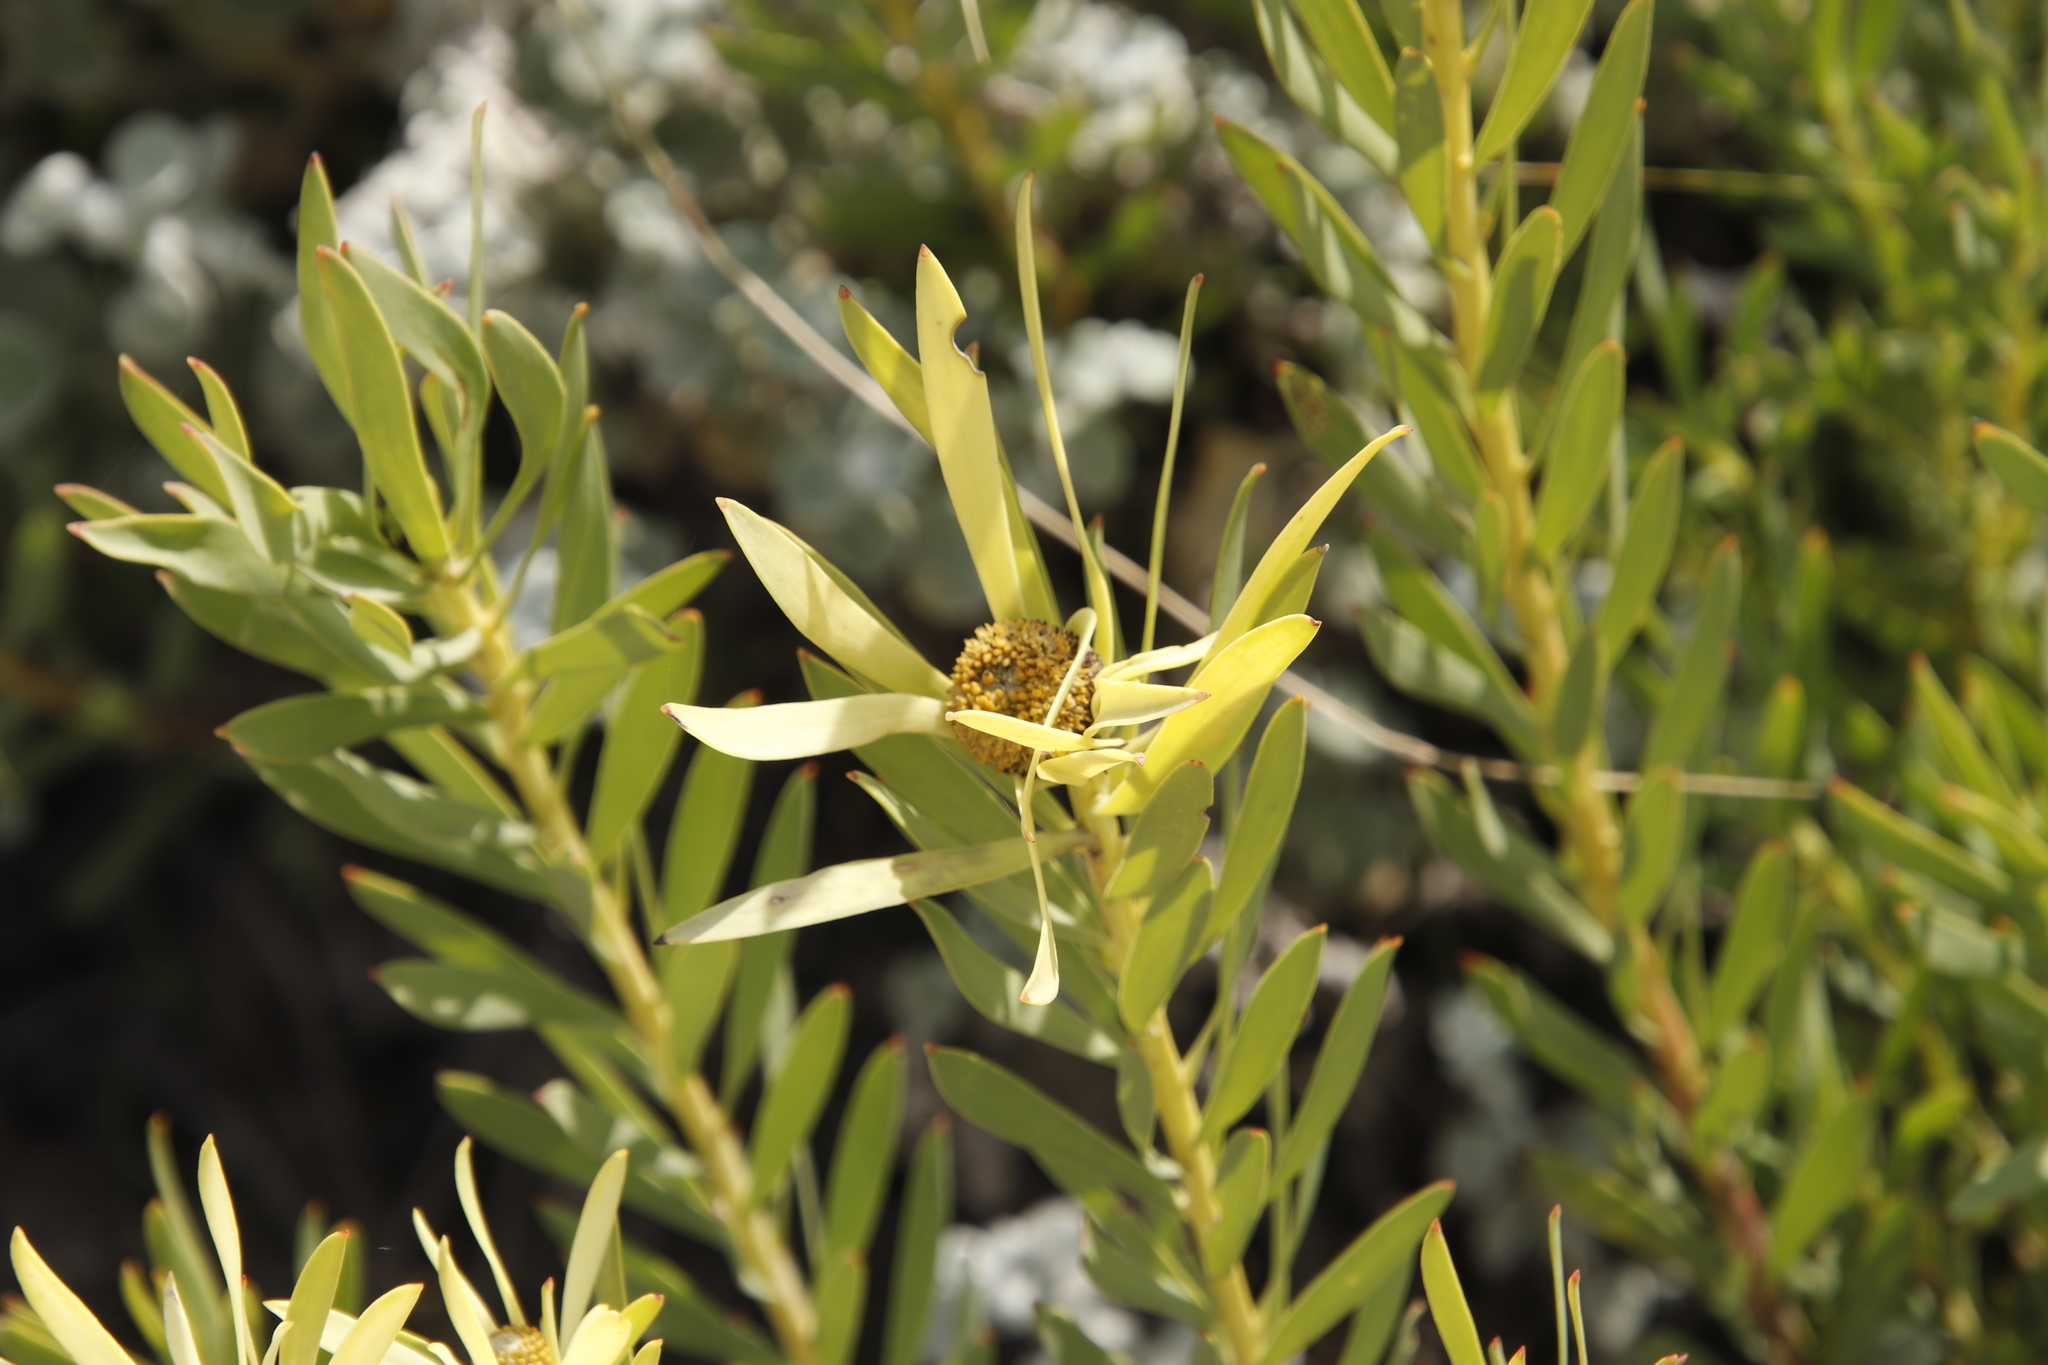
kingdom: Plantae
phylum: Tracheophyta
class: Magnoliopsida
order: Proteales
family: Proteaceae
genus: Leucadendron
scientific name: Leucadendron salignum
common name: Common sunshine conebush
